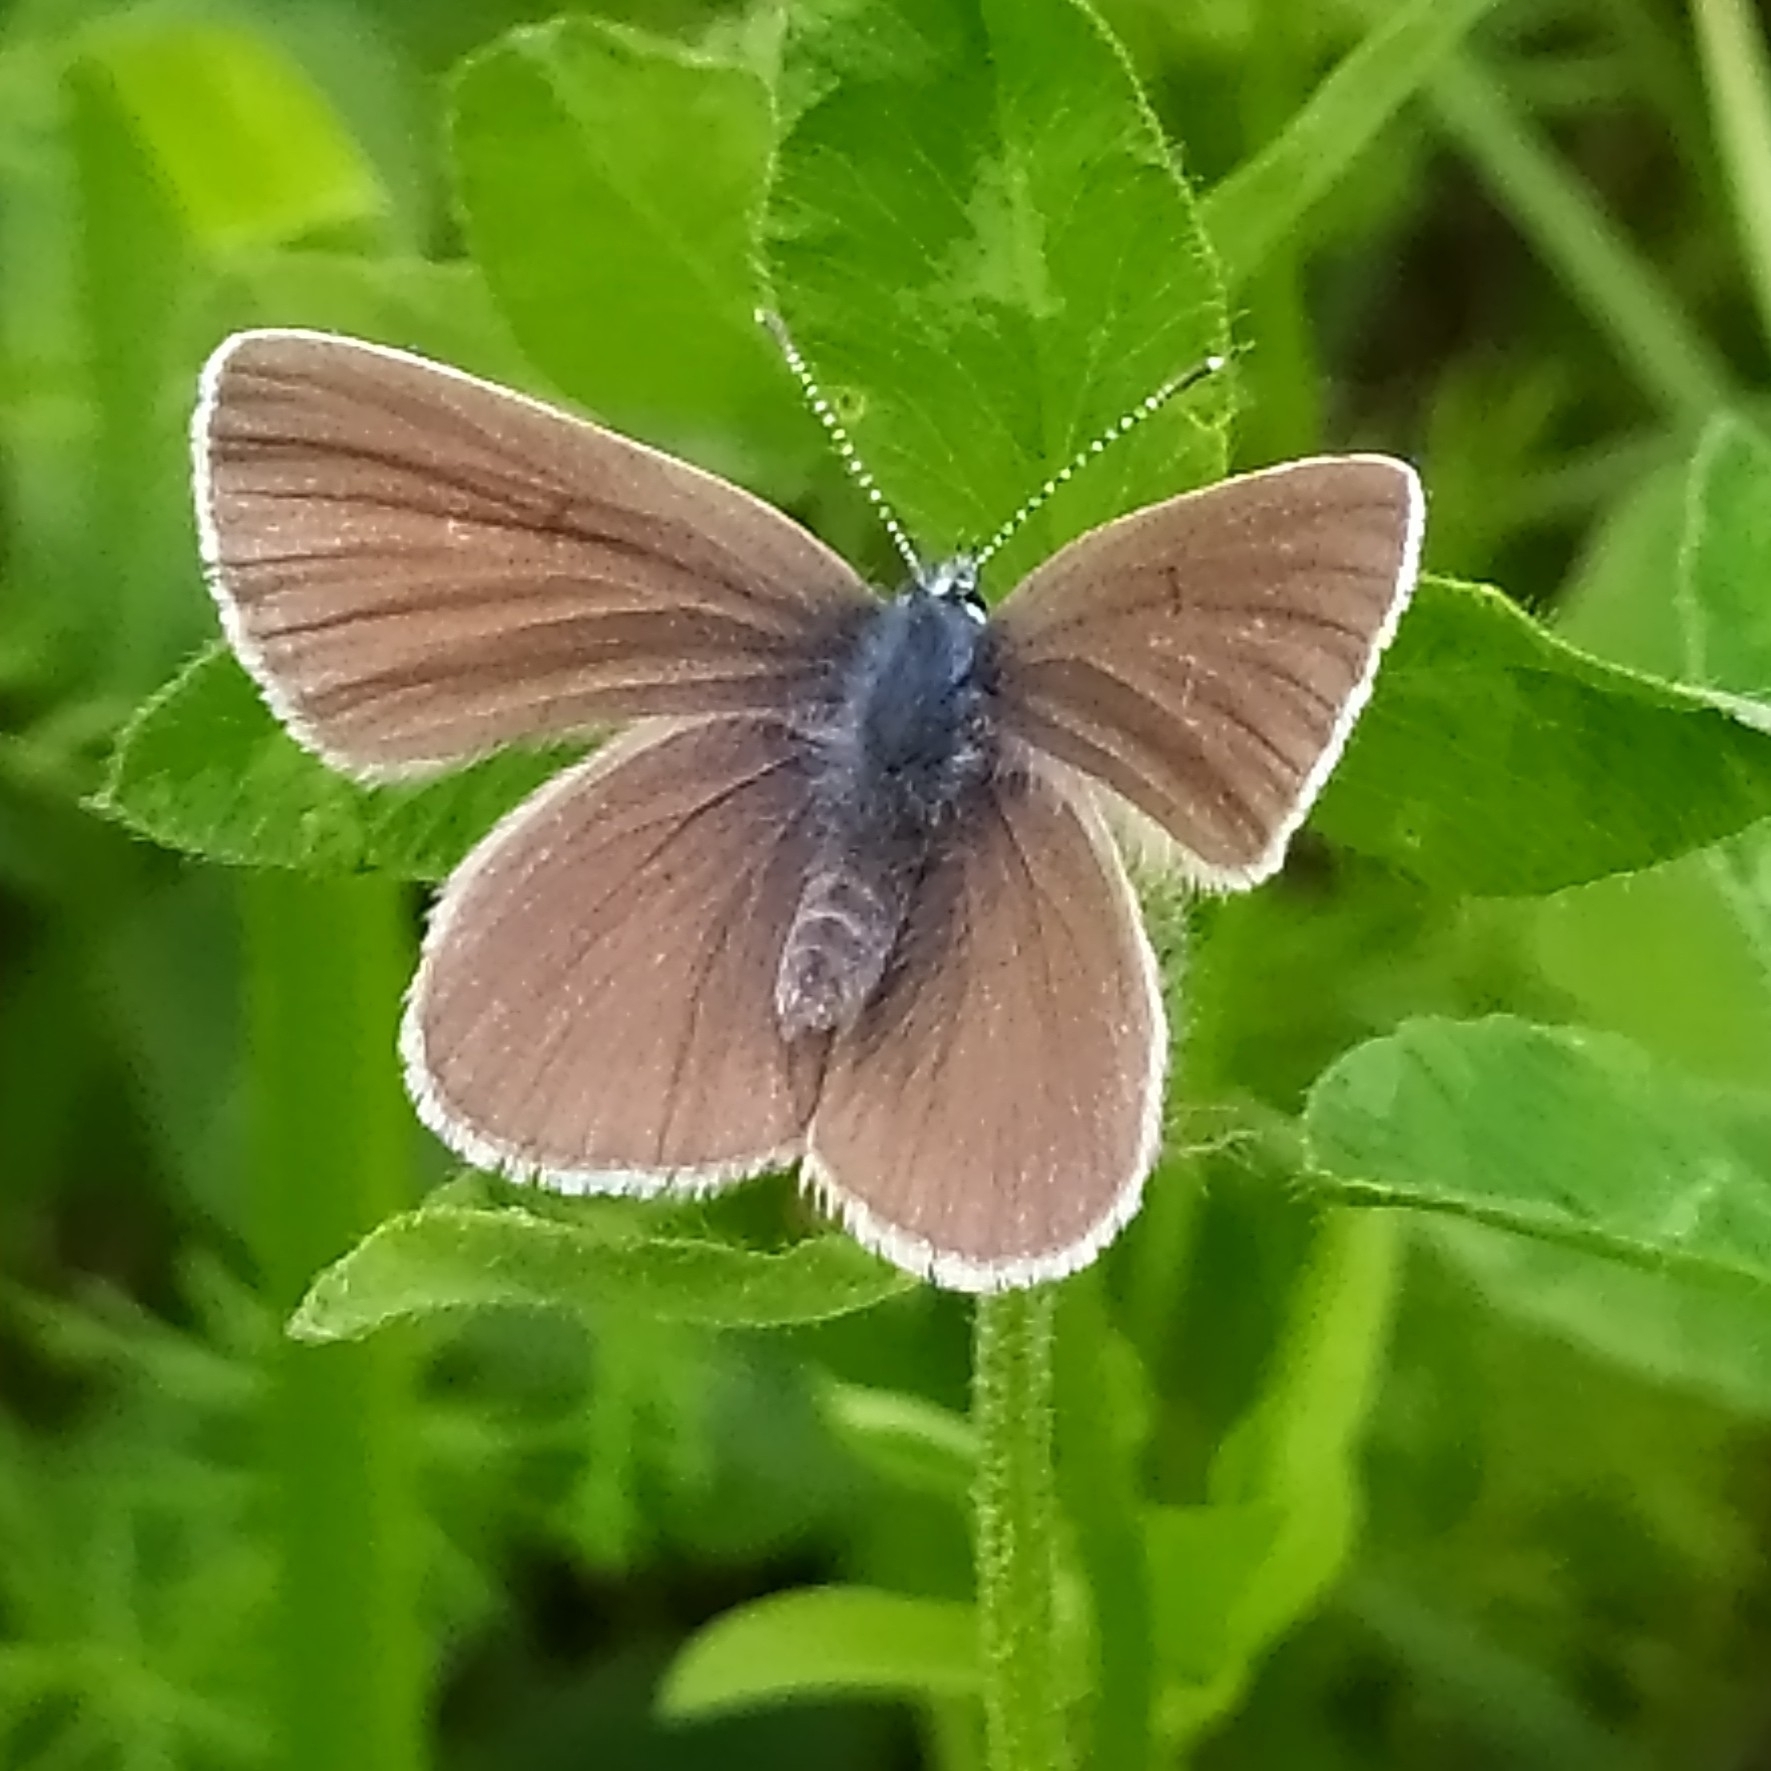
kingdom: Animalia
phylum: Arthropoda
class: Insecta
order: Lepidoptera
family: Lycaenidae
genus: Cyaniris
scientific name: Cyaniris semiargus
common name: Mazarine blue
